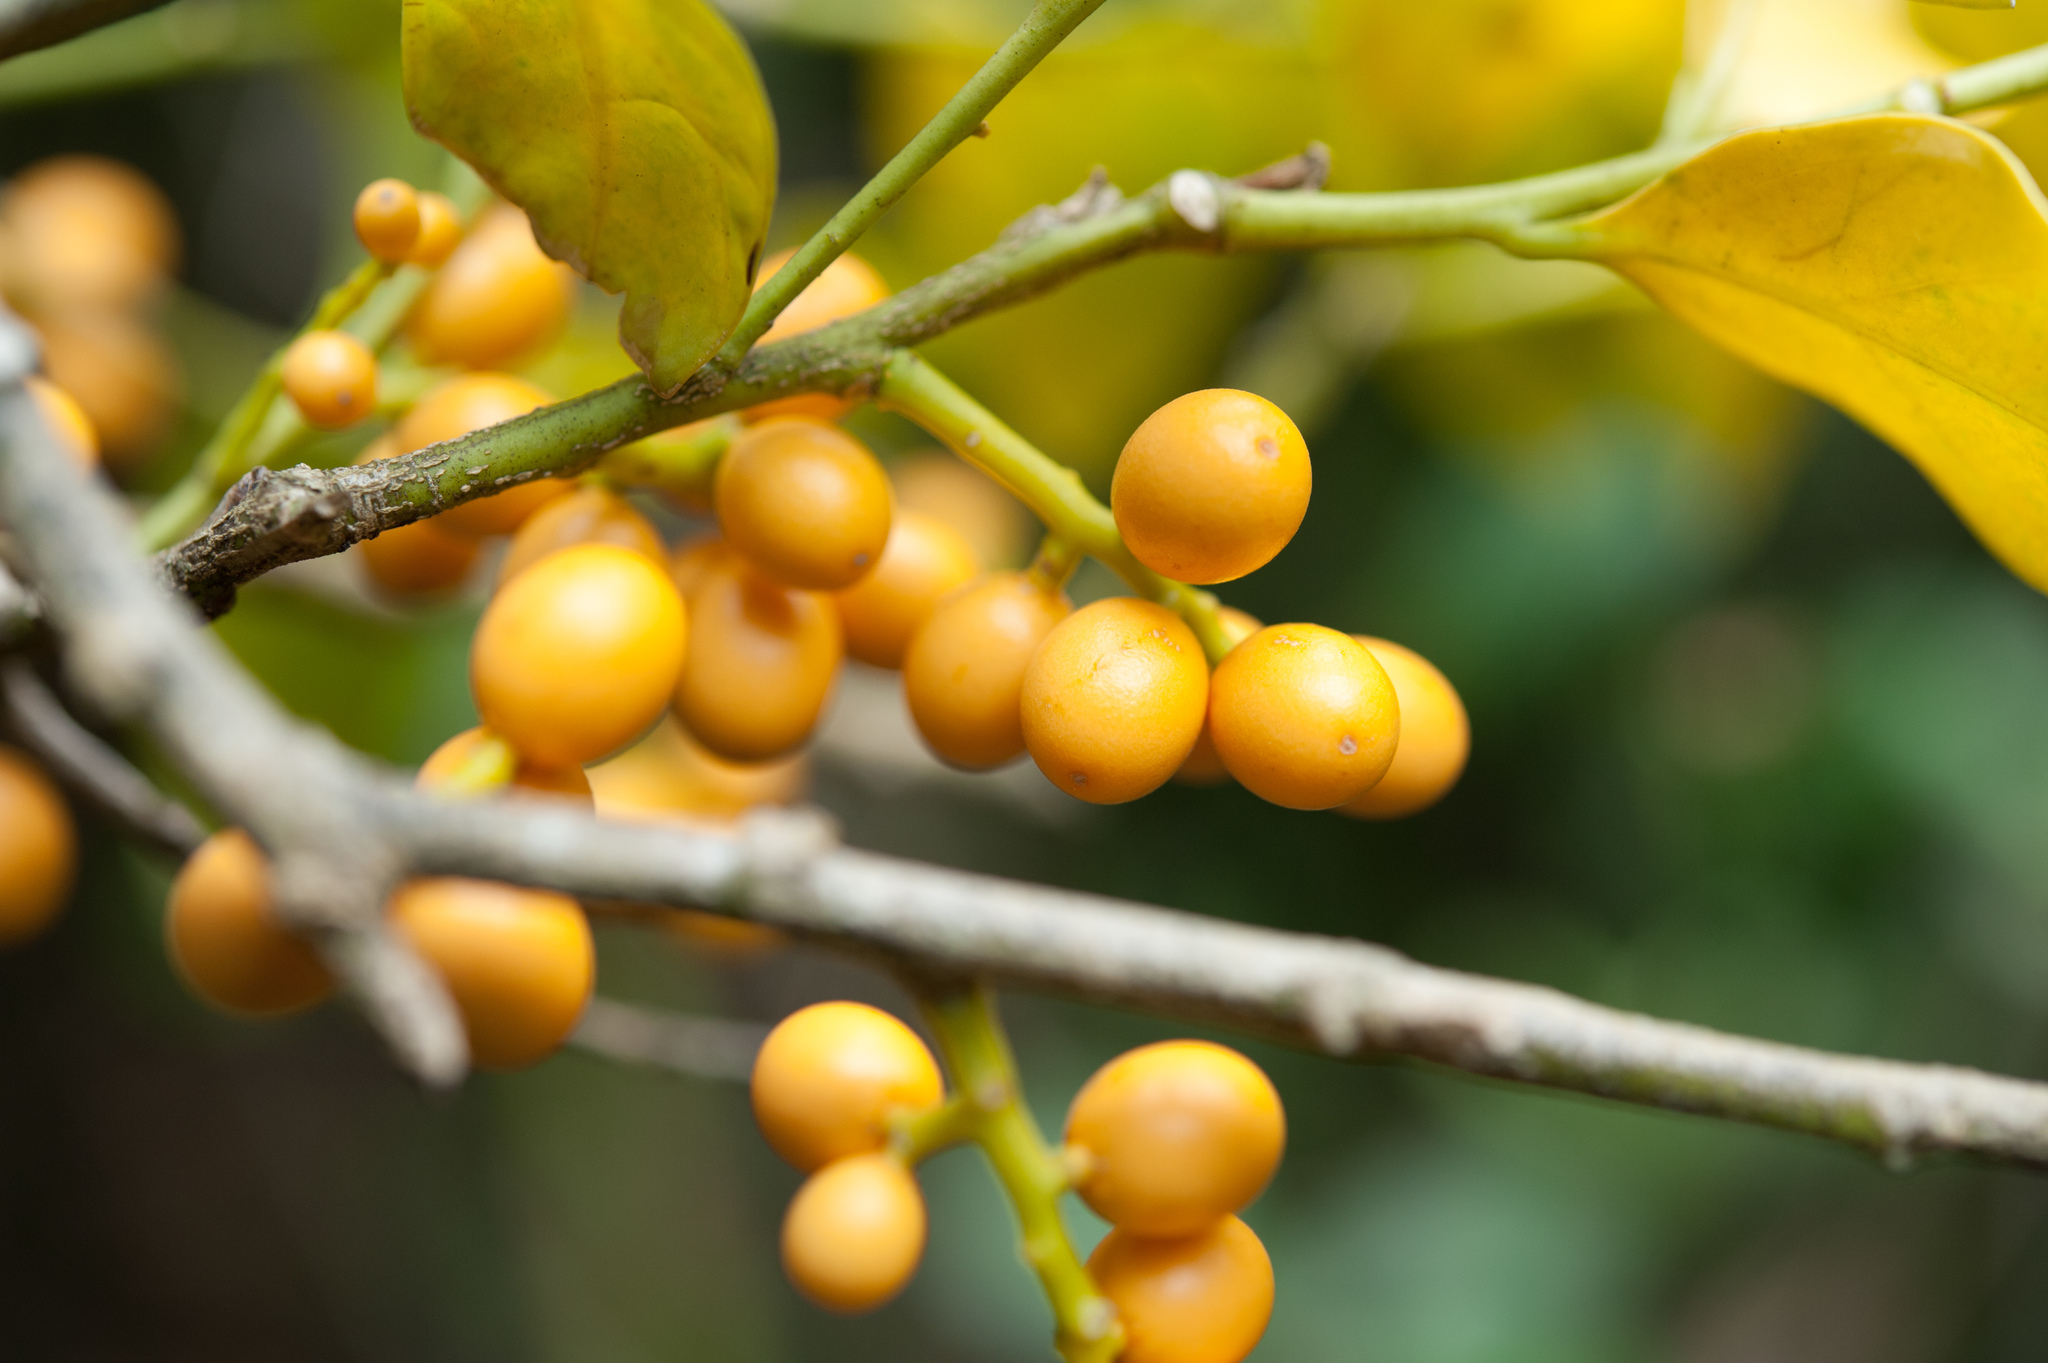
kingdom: Plantae
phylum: Tracheophyta
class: Magnoliopsida
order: Santalales
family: Opiliaceae
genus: Champereia
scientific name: Champereia manillana
